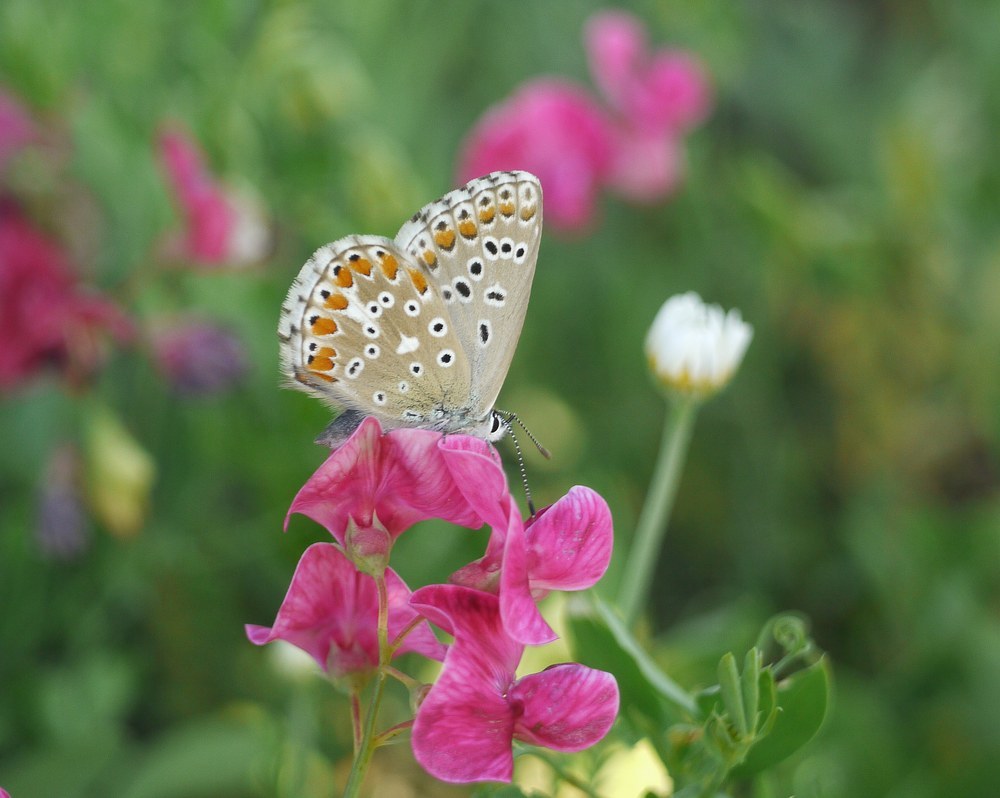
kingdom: Animalia
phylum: Arthropoda
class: Insecta
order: Lepidoptera
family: Lycaenidae
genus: Lysandra
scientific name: Lysandra bellargus
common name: Adonis blue
